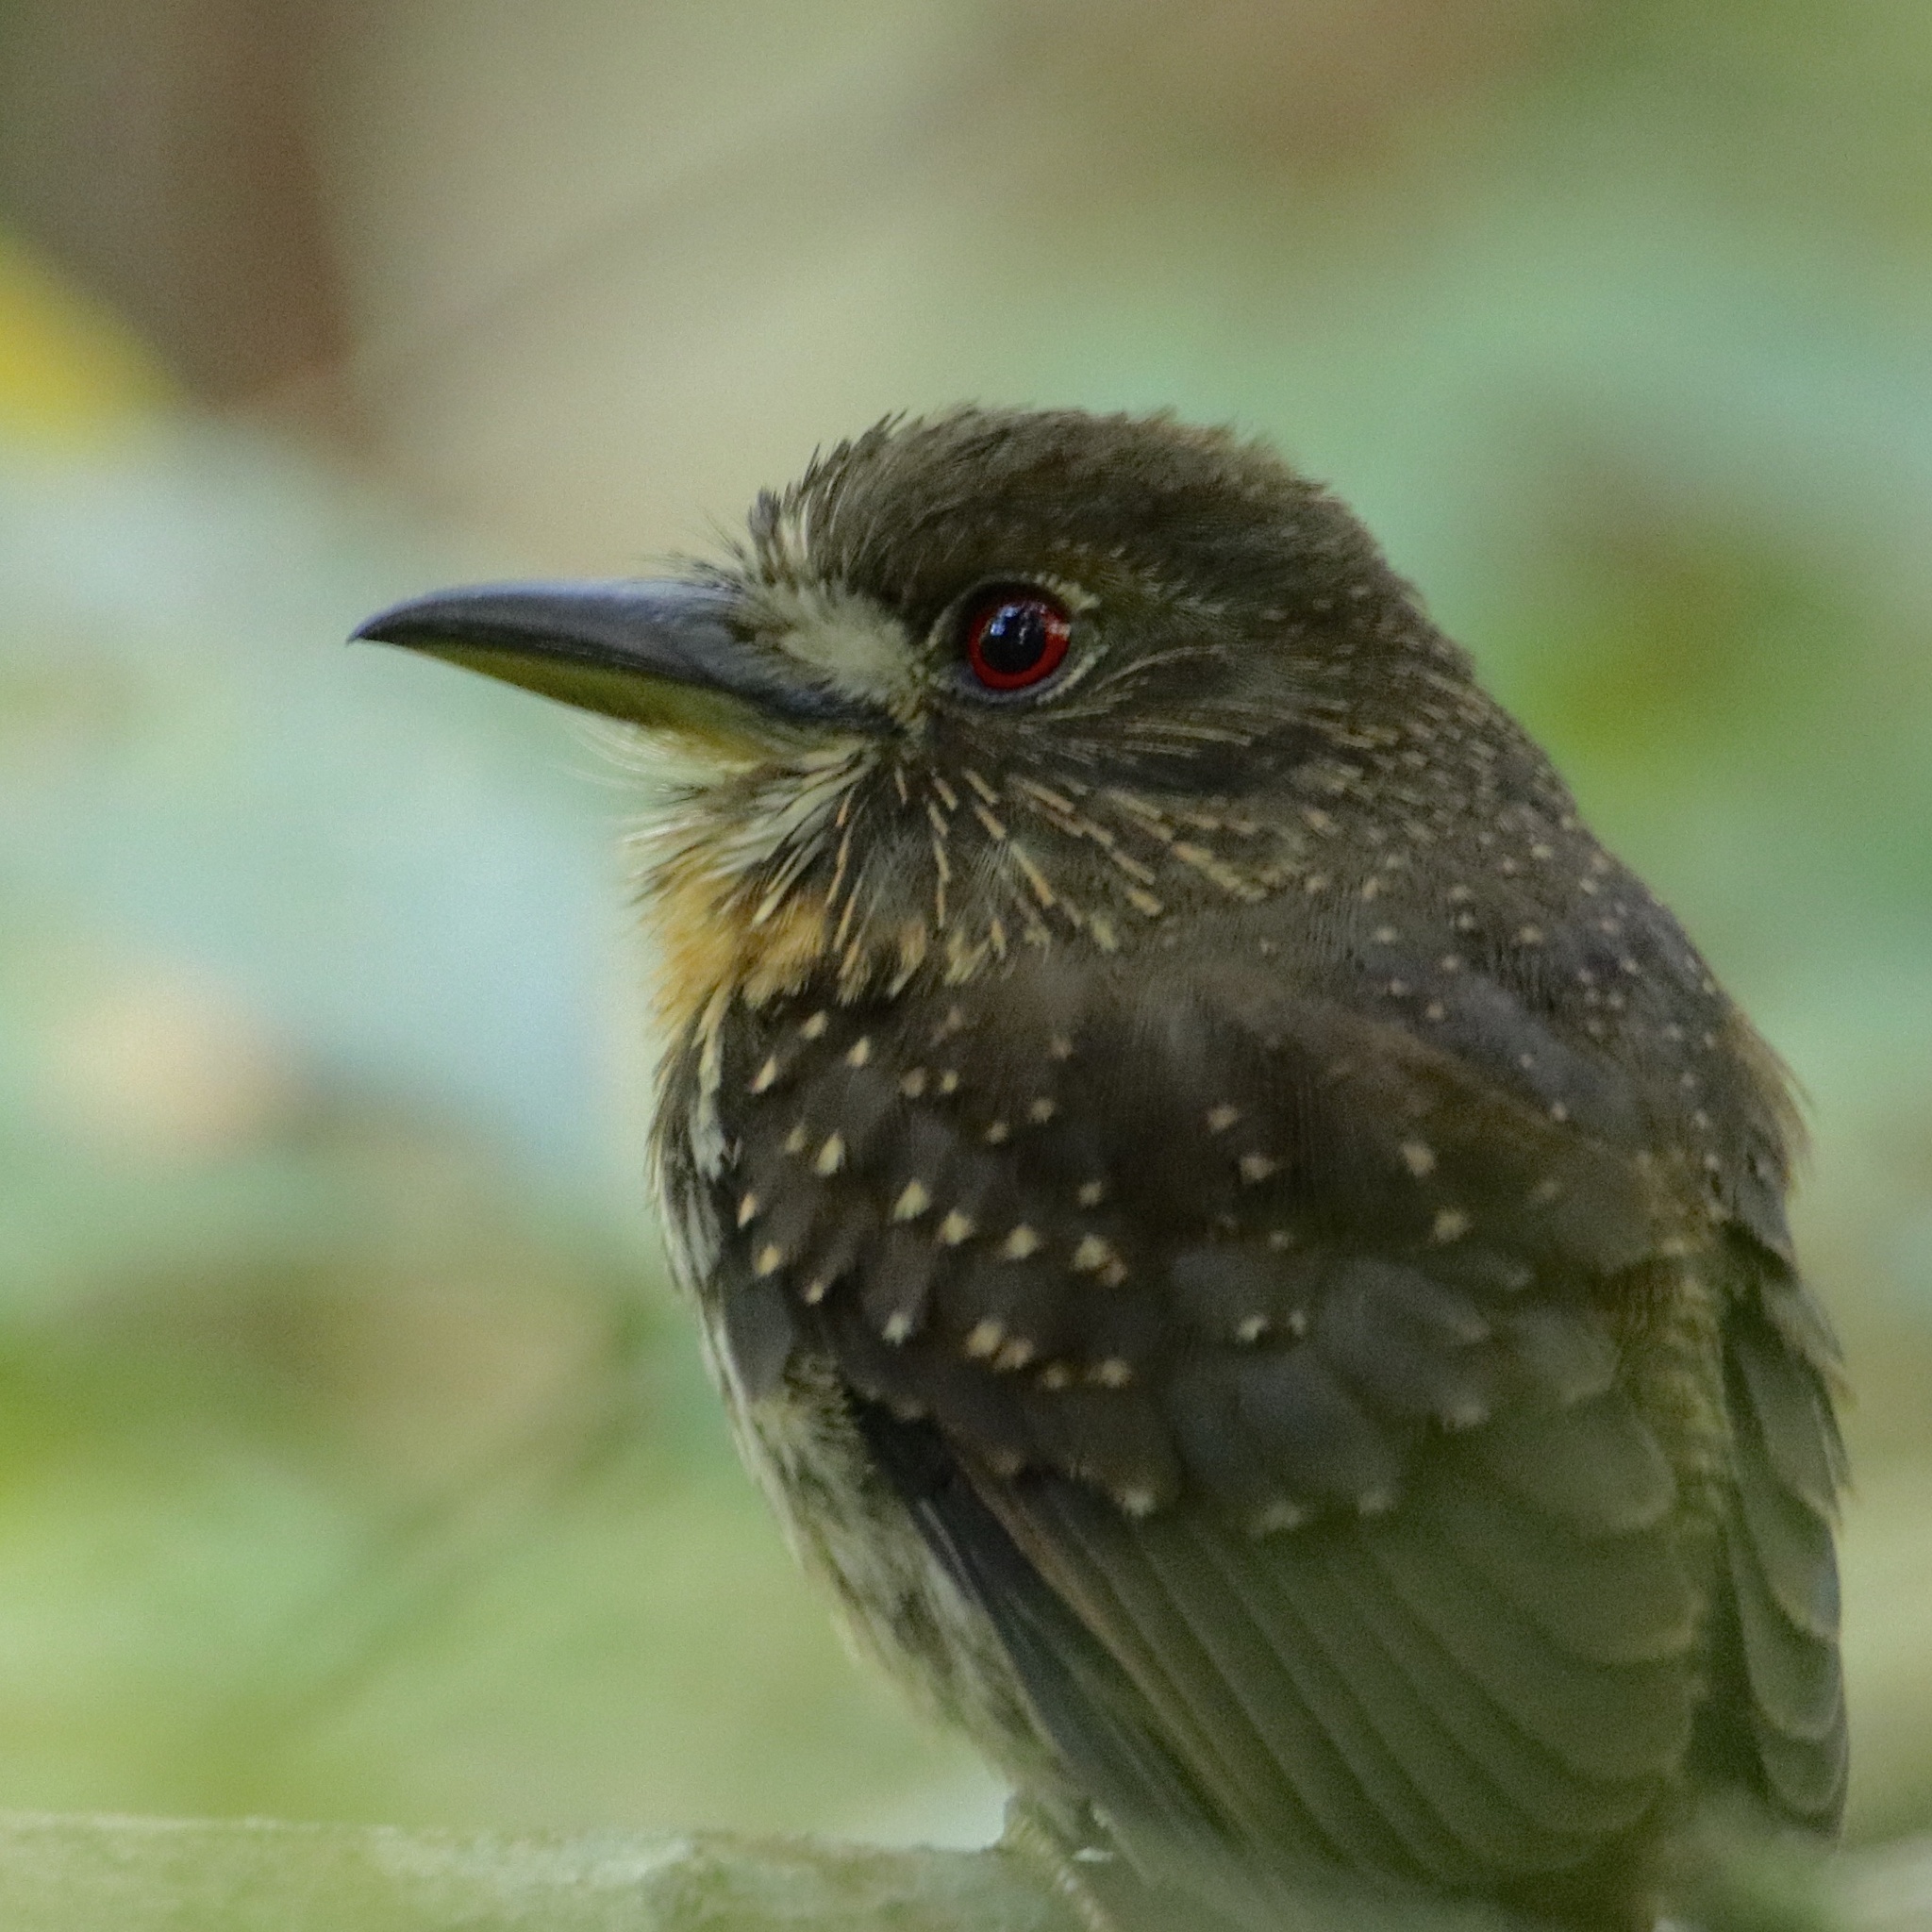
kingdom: Animalia
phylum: Chordata
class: Aves
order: Piciformes
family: Bucconidae
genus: Malacoptila
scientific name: Malacoptila panamensis
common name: White-whiskered puffbird
